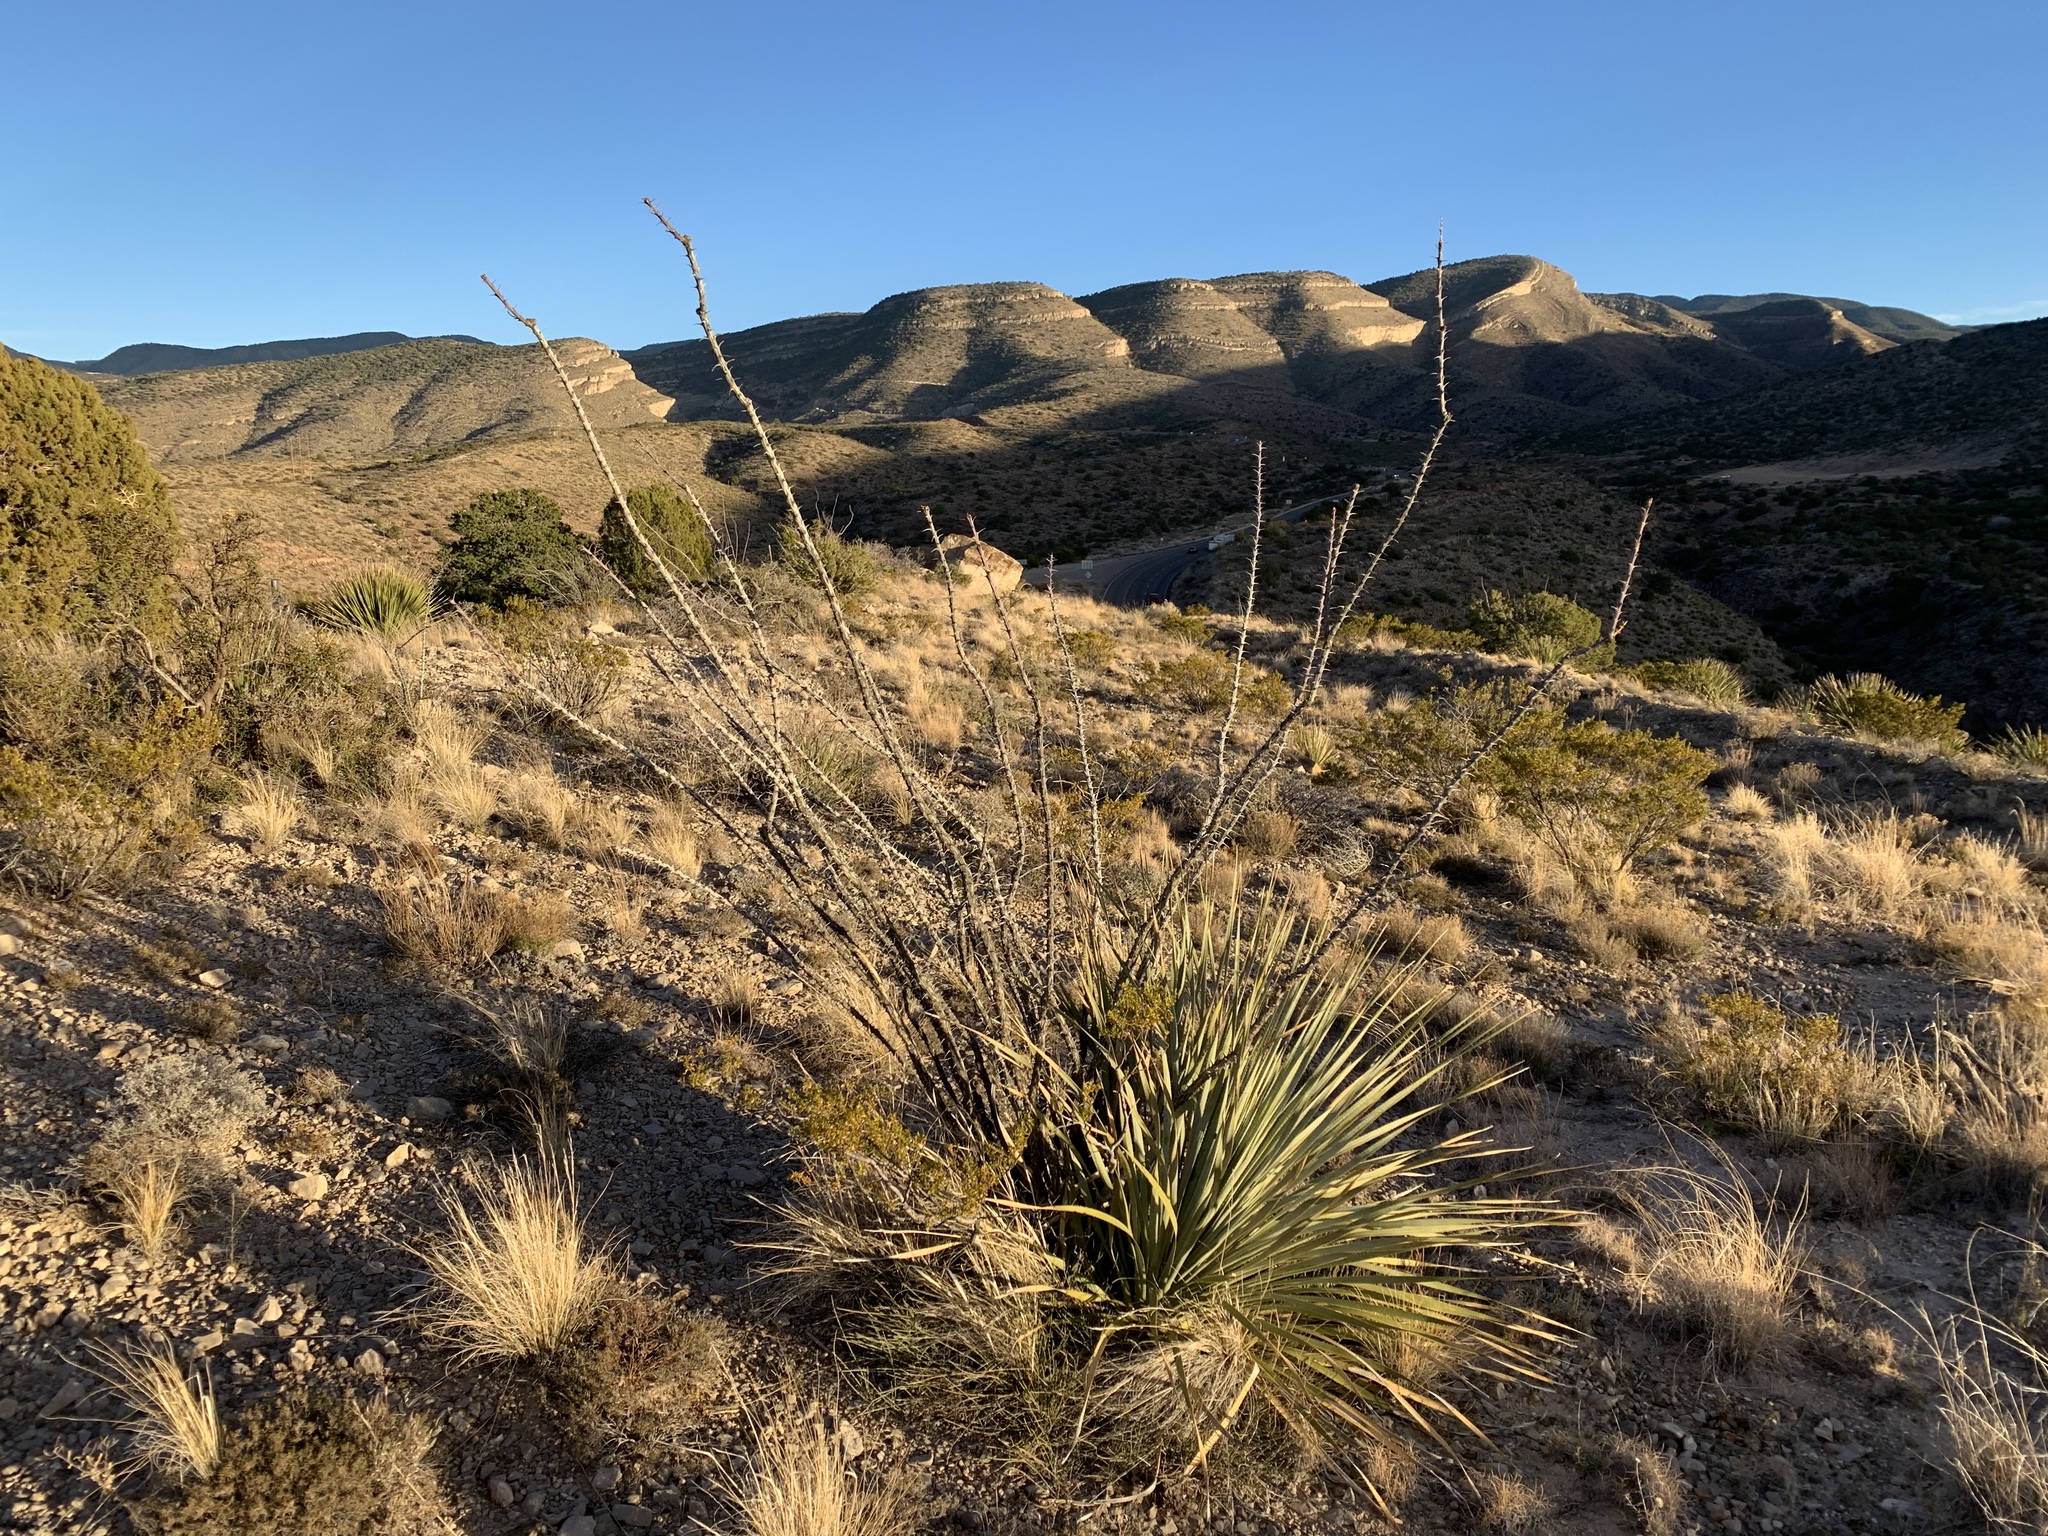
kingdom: Plantae
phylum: Tracheophyta
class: Magnoliopsida
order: Ericales
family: Fouquieriaceae
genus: Fouquieria
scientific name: Fouquieria splendens
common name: Vine-cactus
